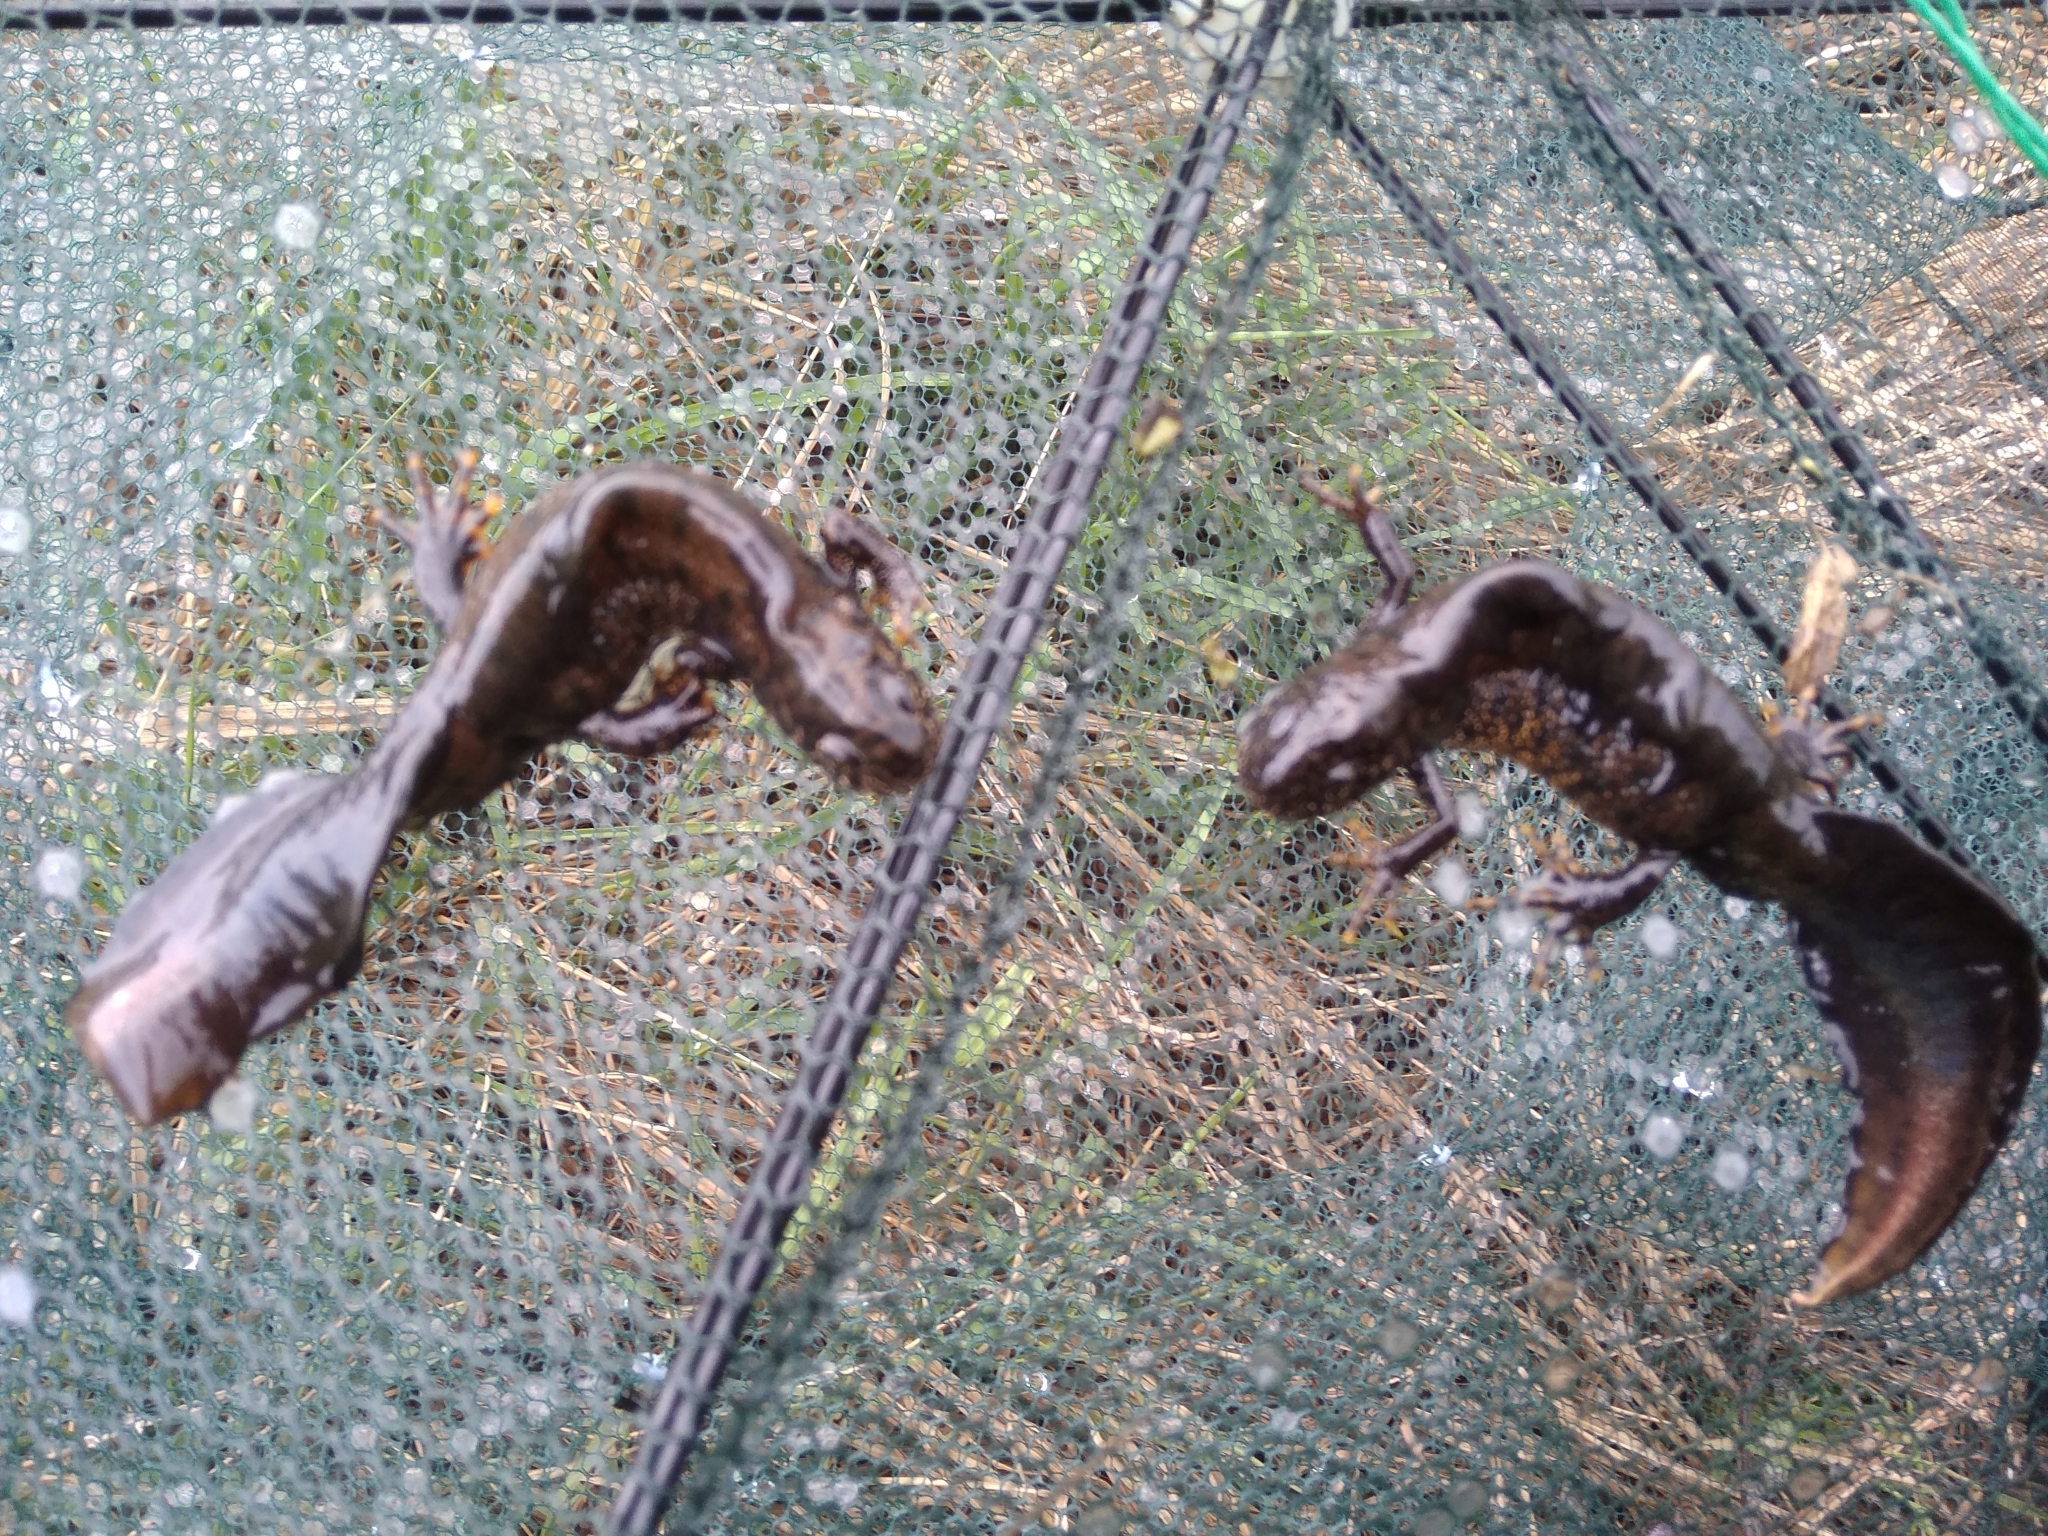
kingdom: Animalia
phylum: Chordata
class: Amphibia
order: Caudata
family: Salamandridae
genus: Triturus
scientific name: Triturus cristatus
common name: Crested newt
